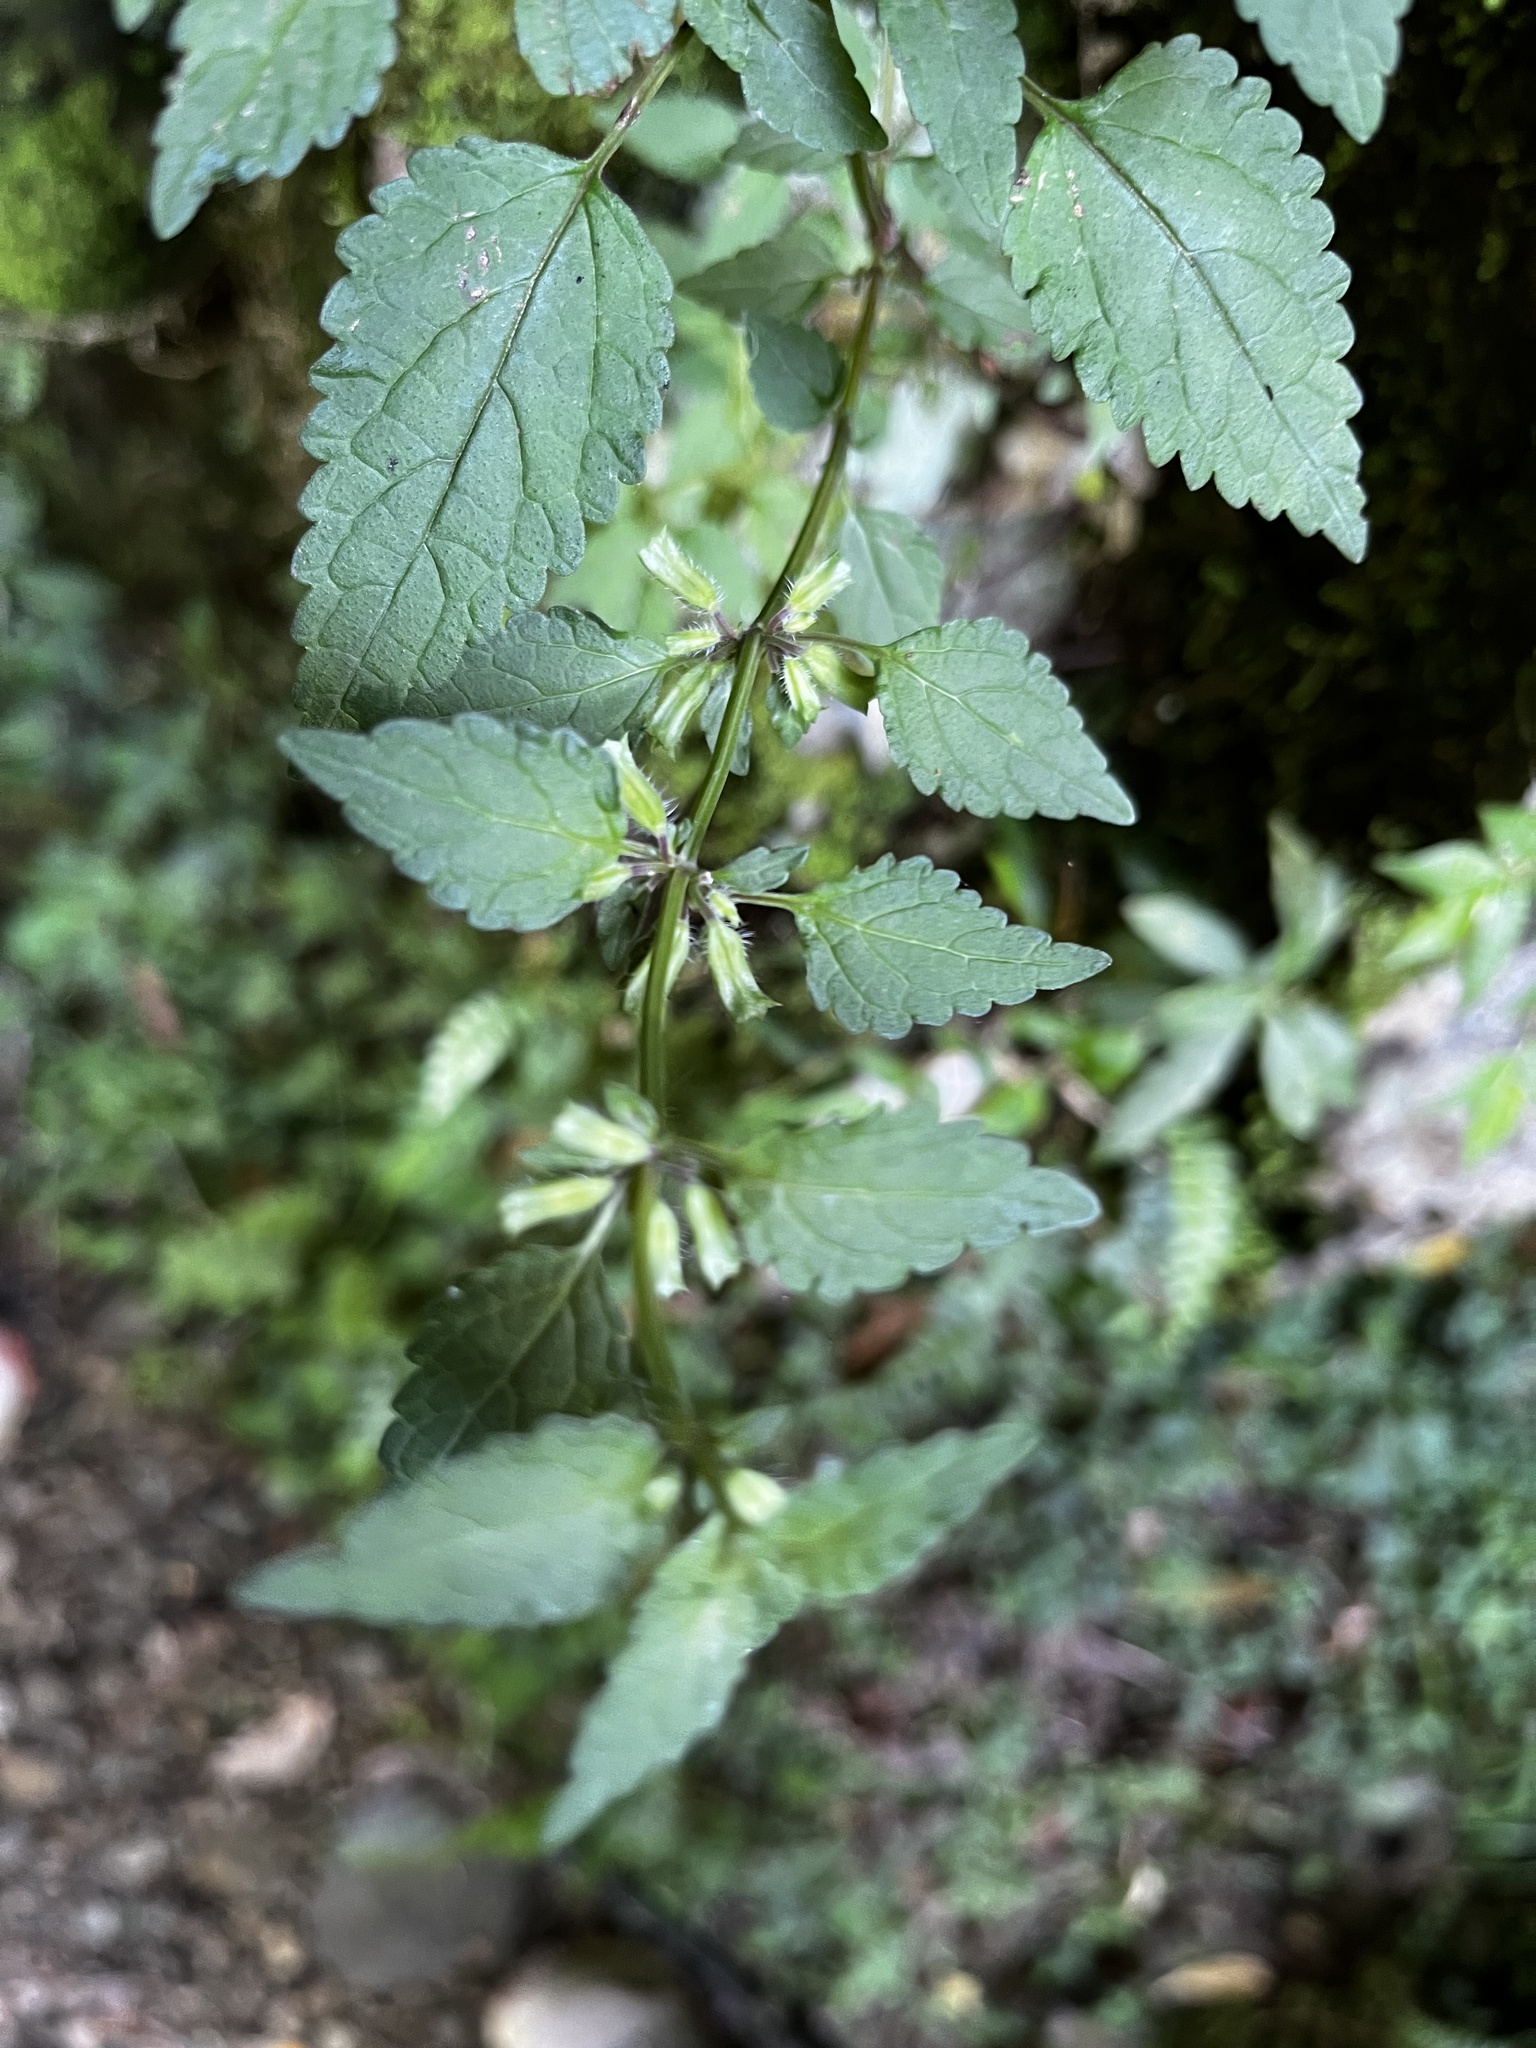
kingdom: Plantae
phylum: Tracheophyta
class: Magnoliopsida
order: Lamiales
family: Lamiaceae
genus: Melissa
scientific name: Melissa axillaris
